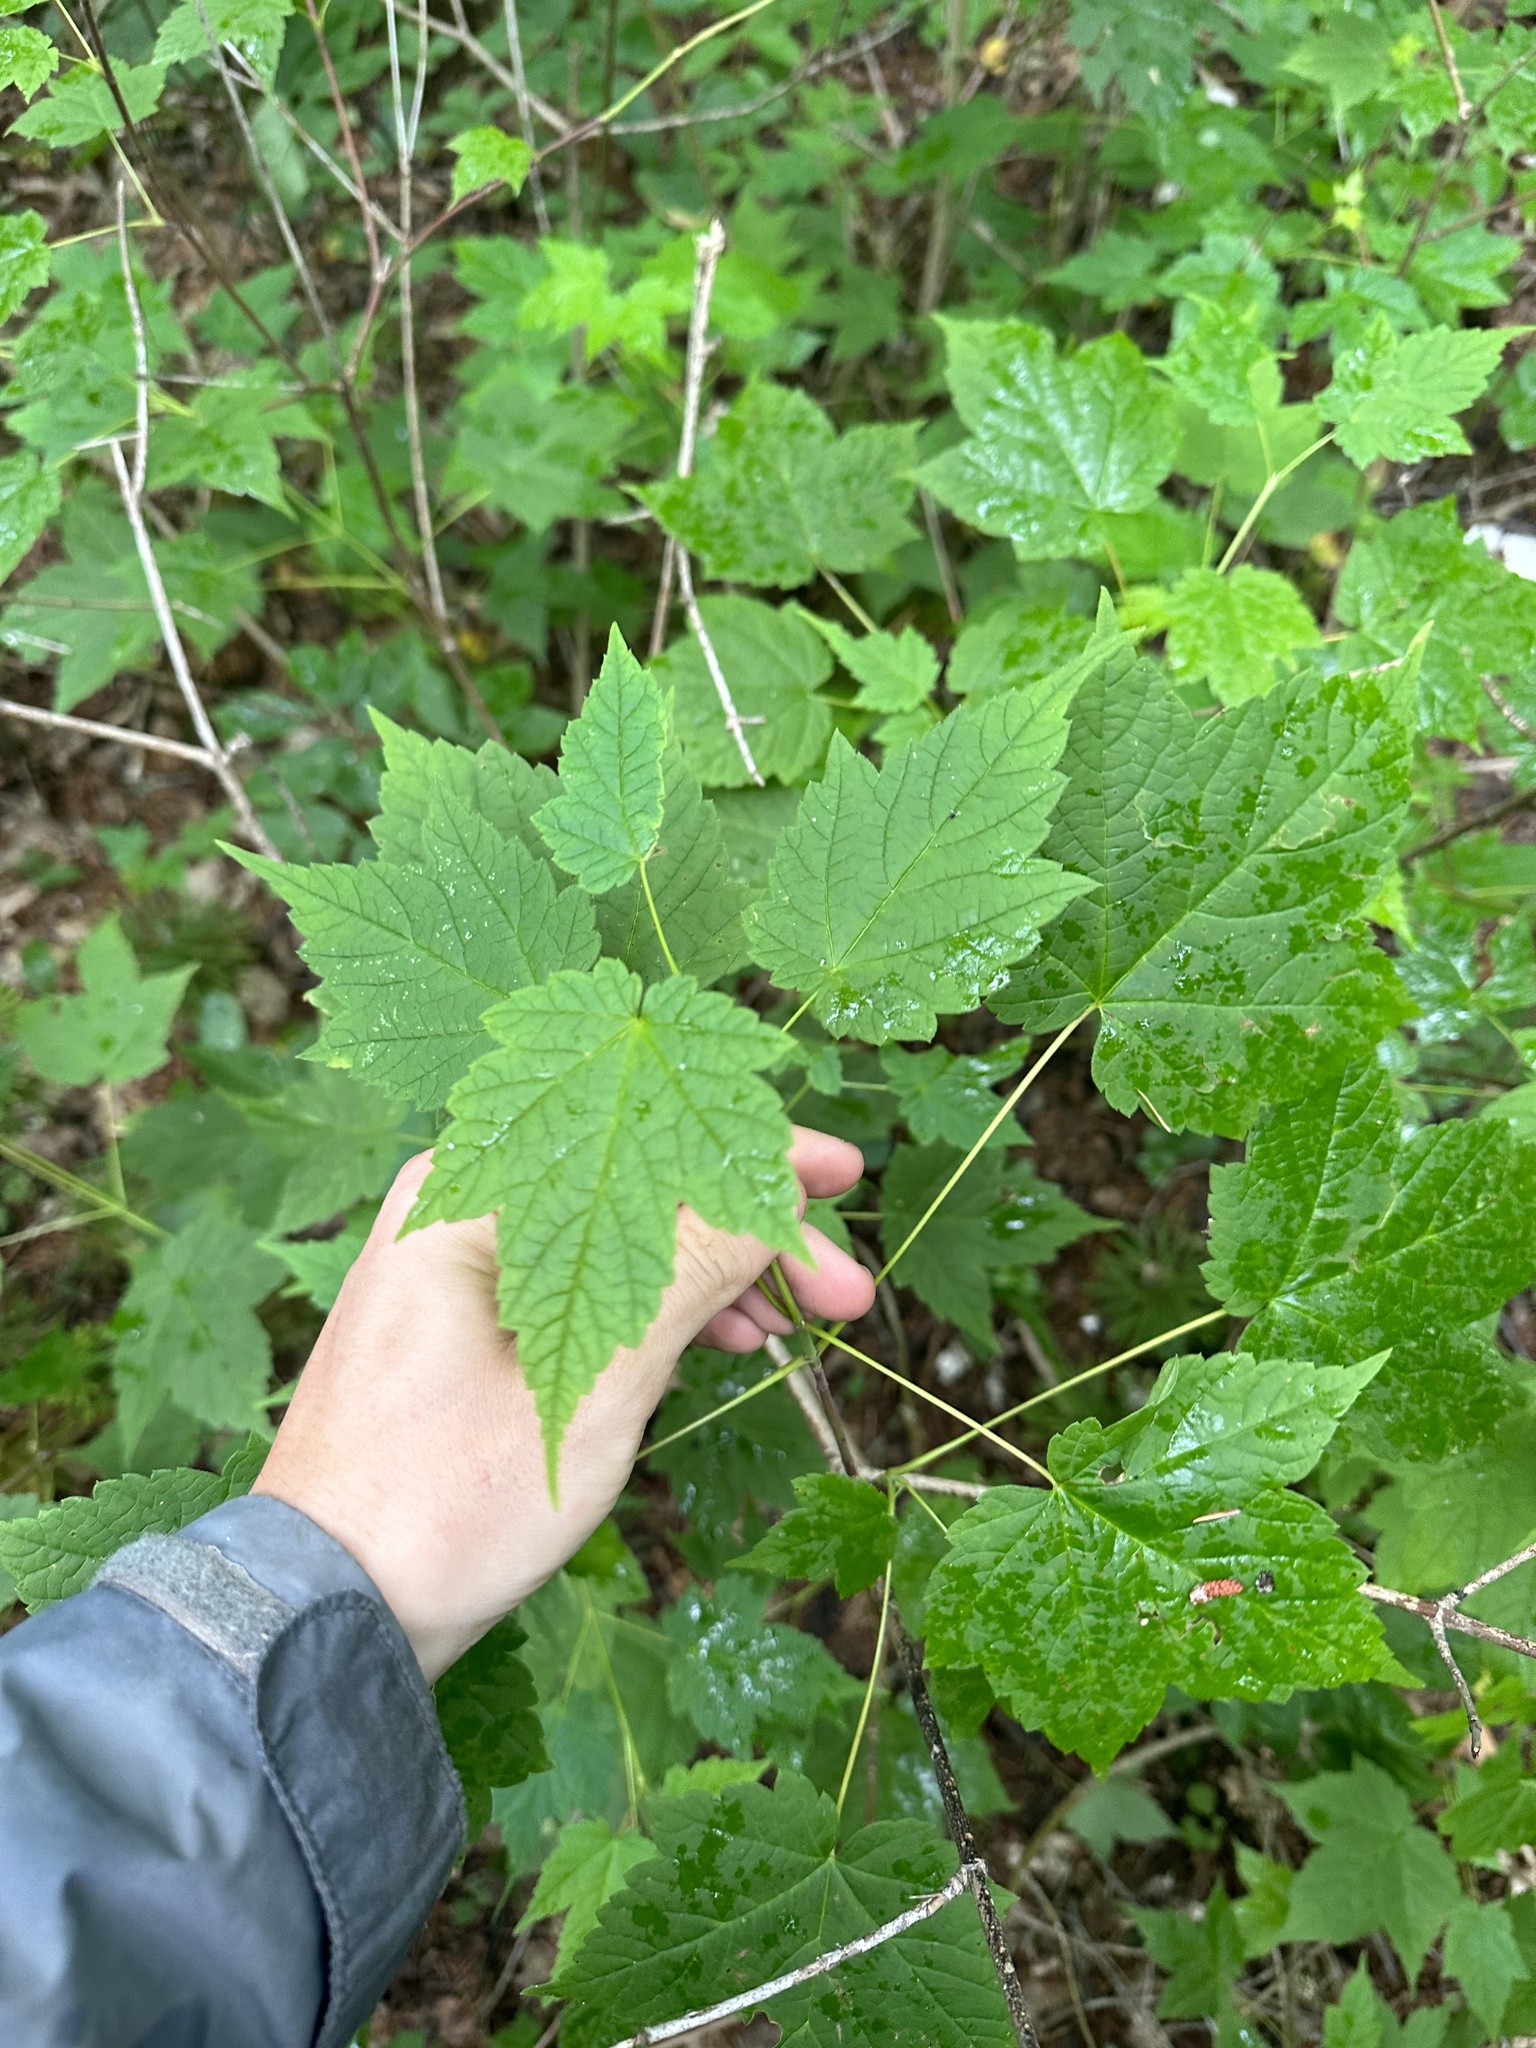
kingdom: Plantae
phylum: Tracheophyta
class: Magnoliopsida
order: Sapindales
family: Sapindaceae
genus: Acer
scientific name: Acer spicatum
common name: Mountain maple
